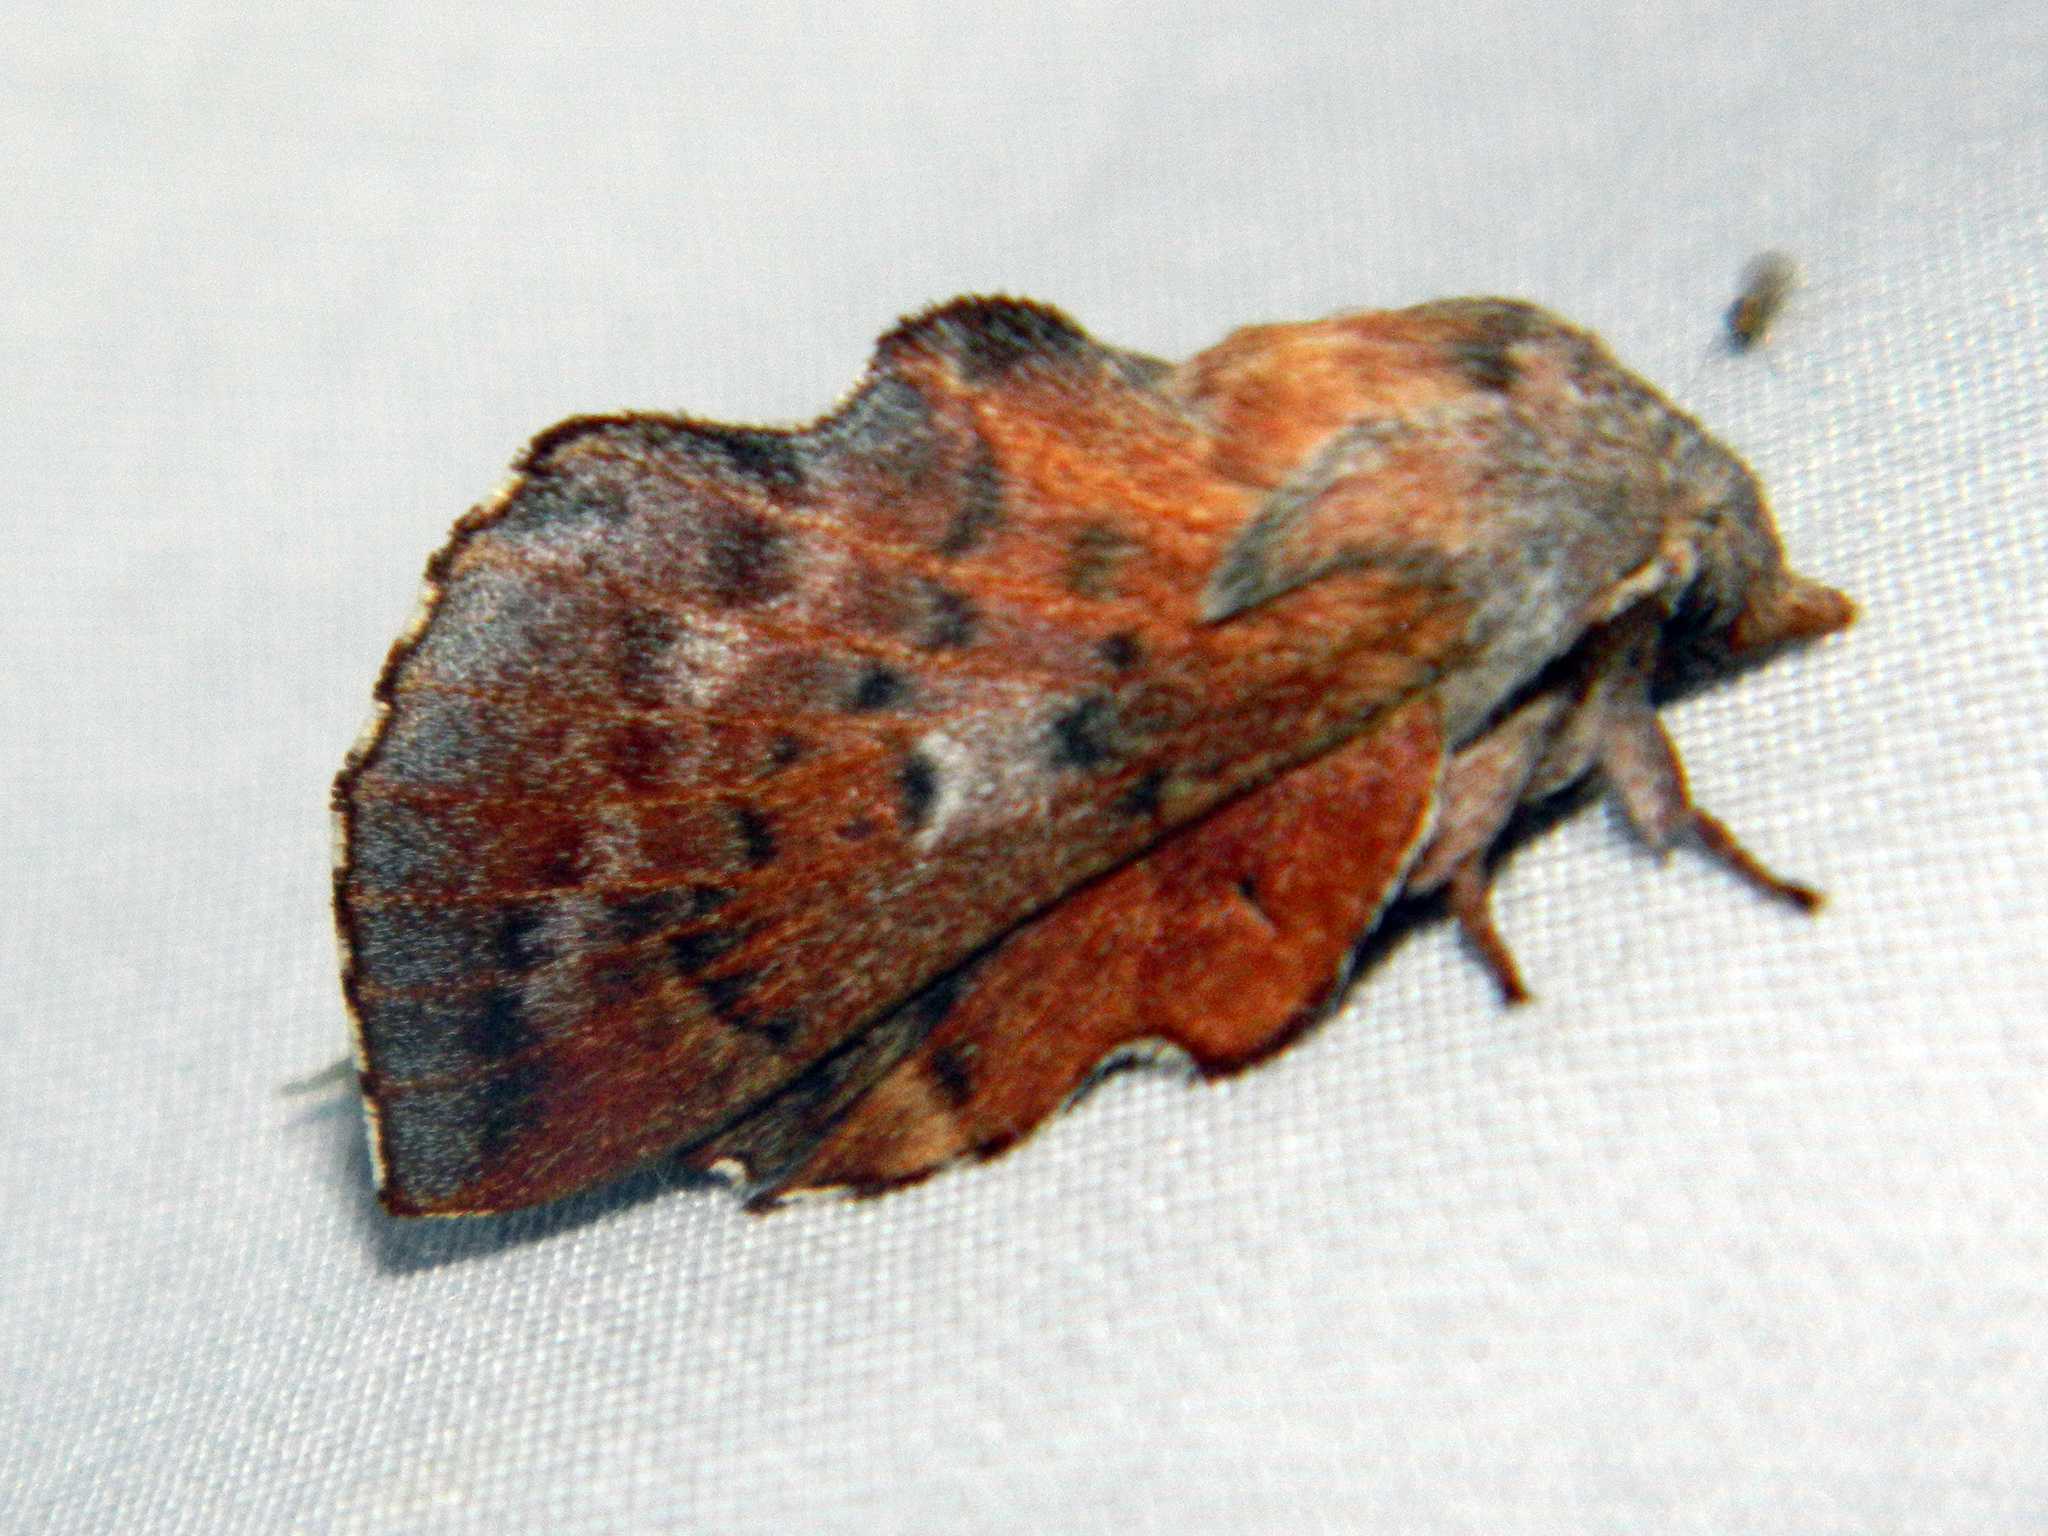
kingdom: Animalia
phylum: Arthropoda
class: Insecta
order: Lepidoptera
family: Lasiocampidae
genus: Phyllodesma
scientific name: Phyllodesma americana
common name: American lappet moth
